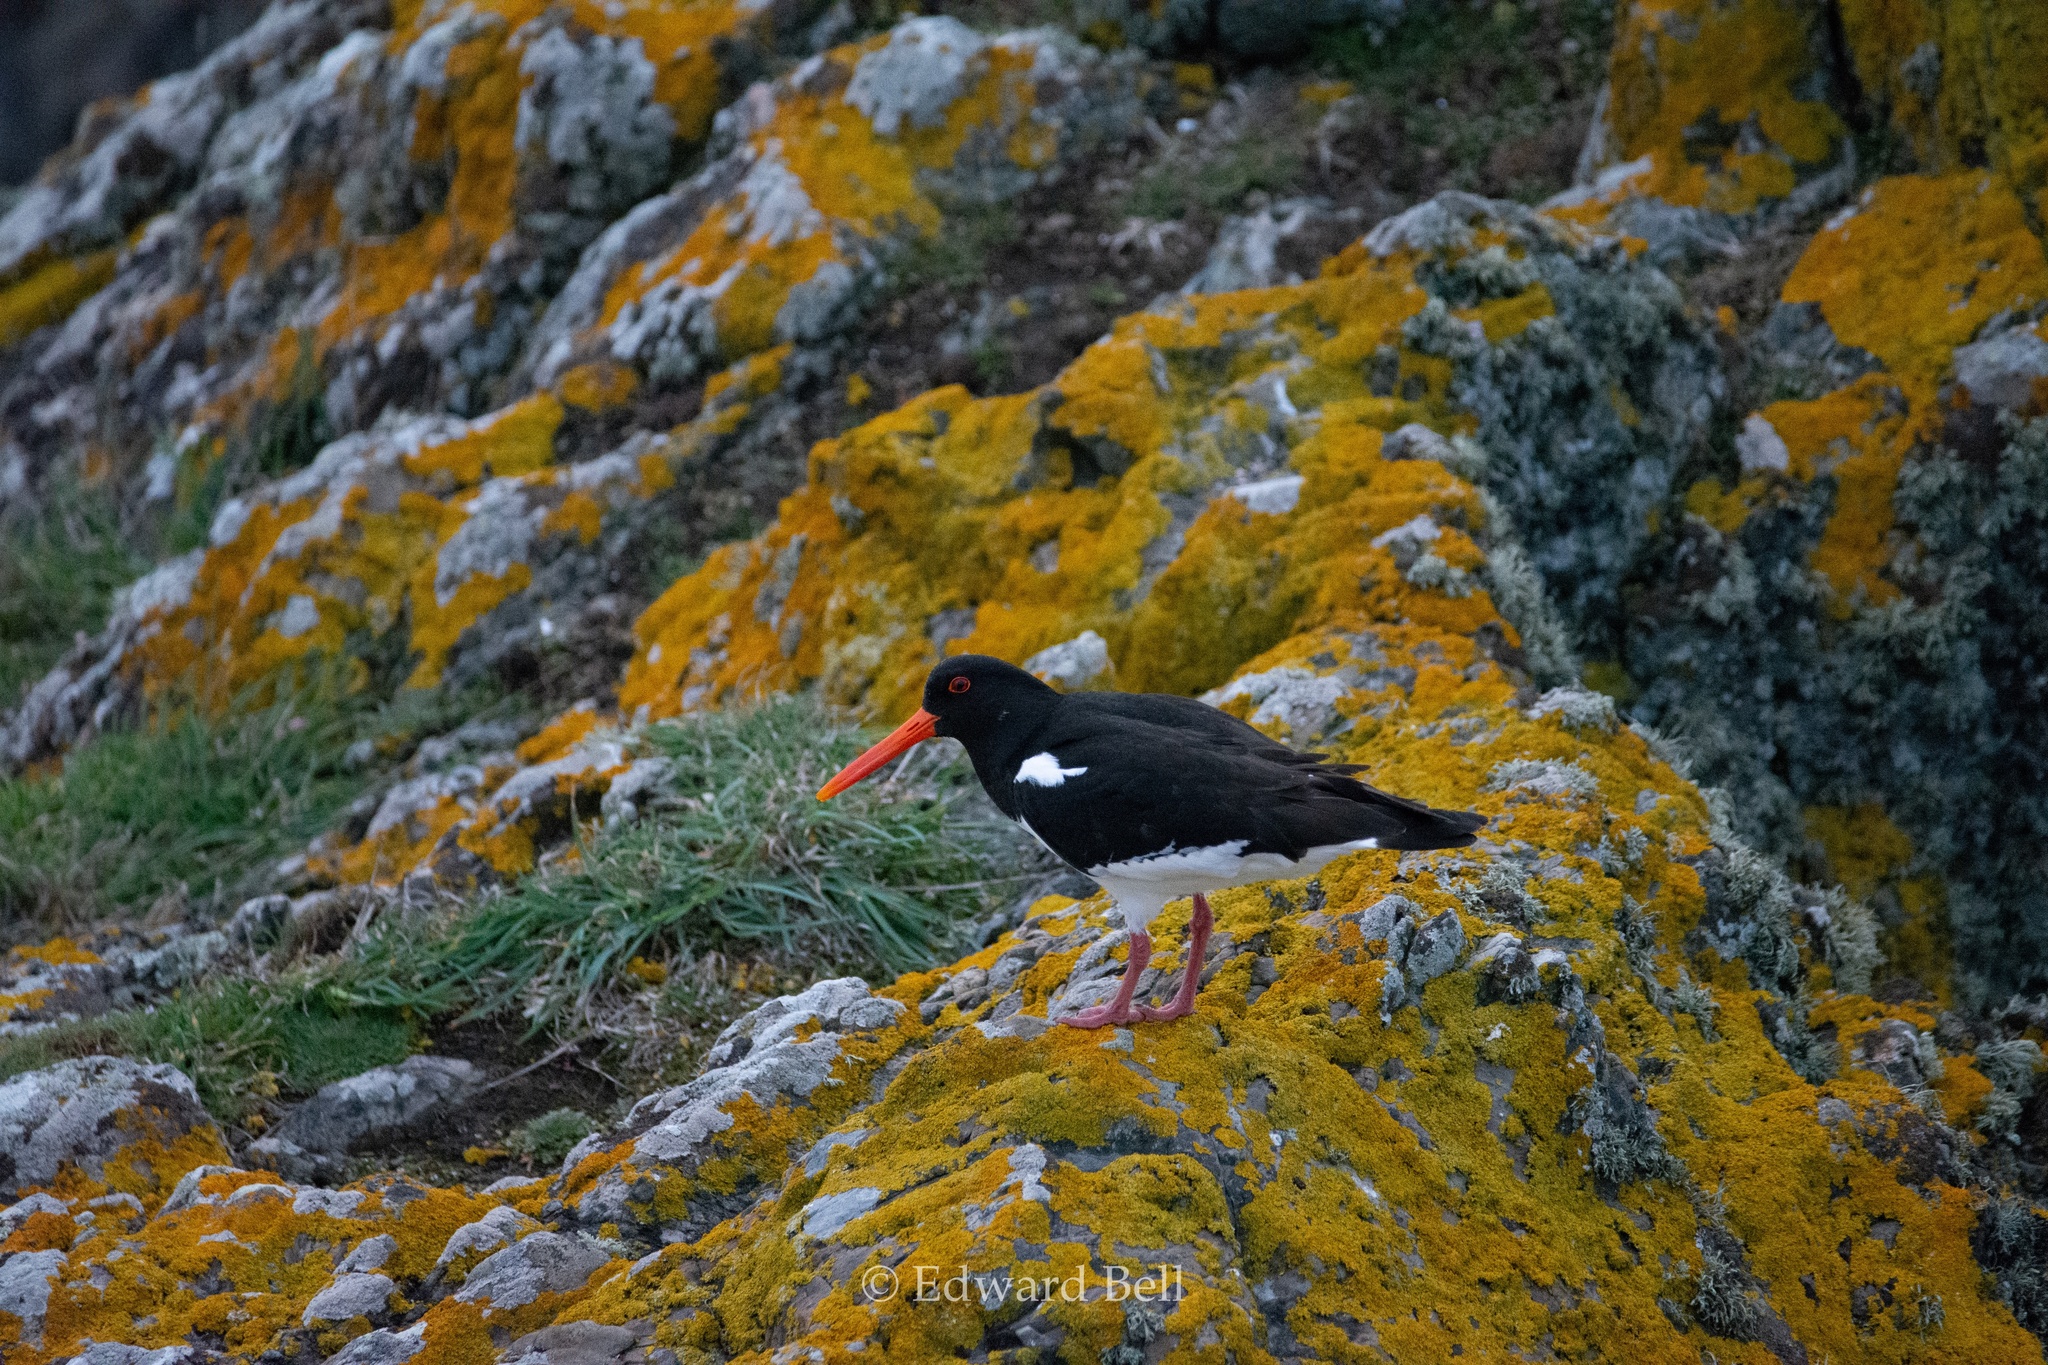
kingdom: Animalia
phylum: Chordata
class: Aves
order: Charadriiformes
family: Haematopodidae
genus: Haematopus
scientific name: Haematopus ostralegus
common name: Eurasian oystercatcher
